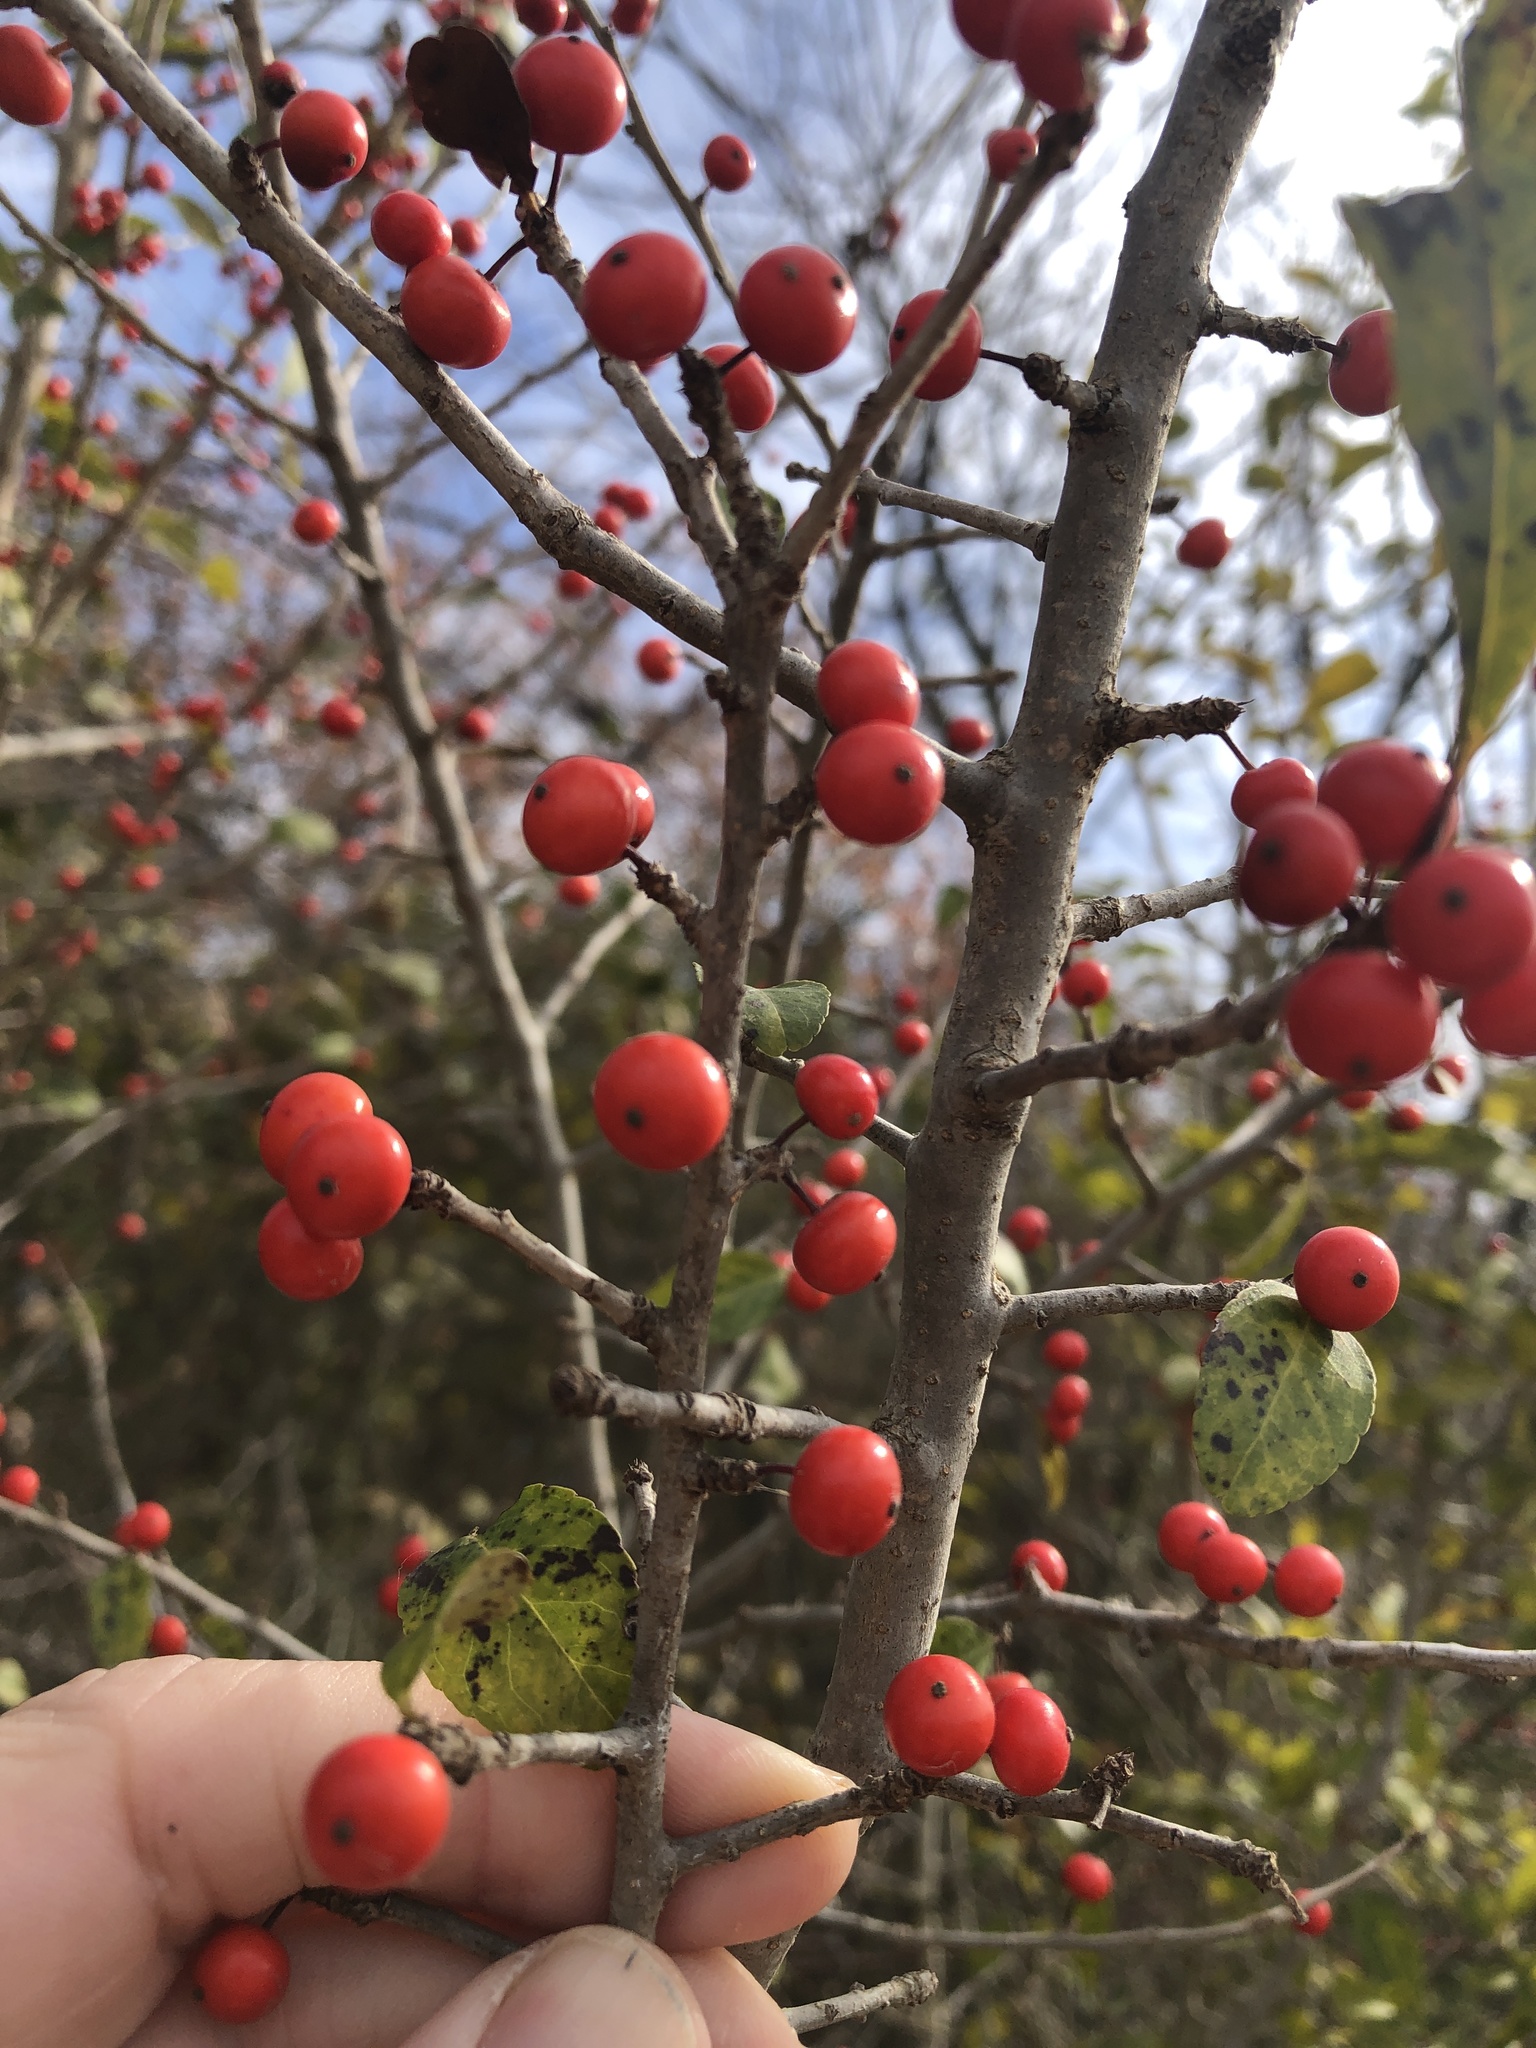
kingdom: Plantae
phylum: Tracheophyta
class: Magnoliopsida
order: Aquifoliales
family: Aquifoliaceae
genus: Ilex
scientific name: Ilex decidua
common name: Possum-haw
